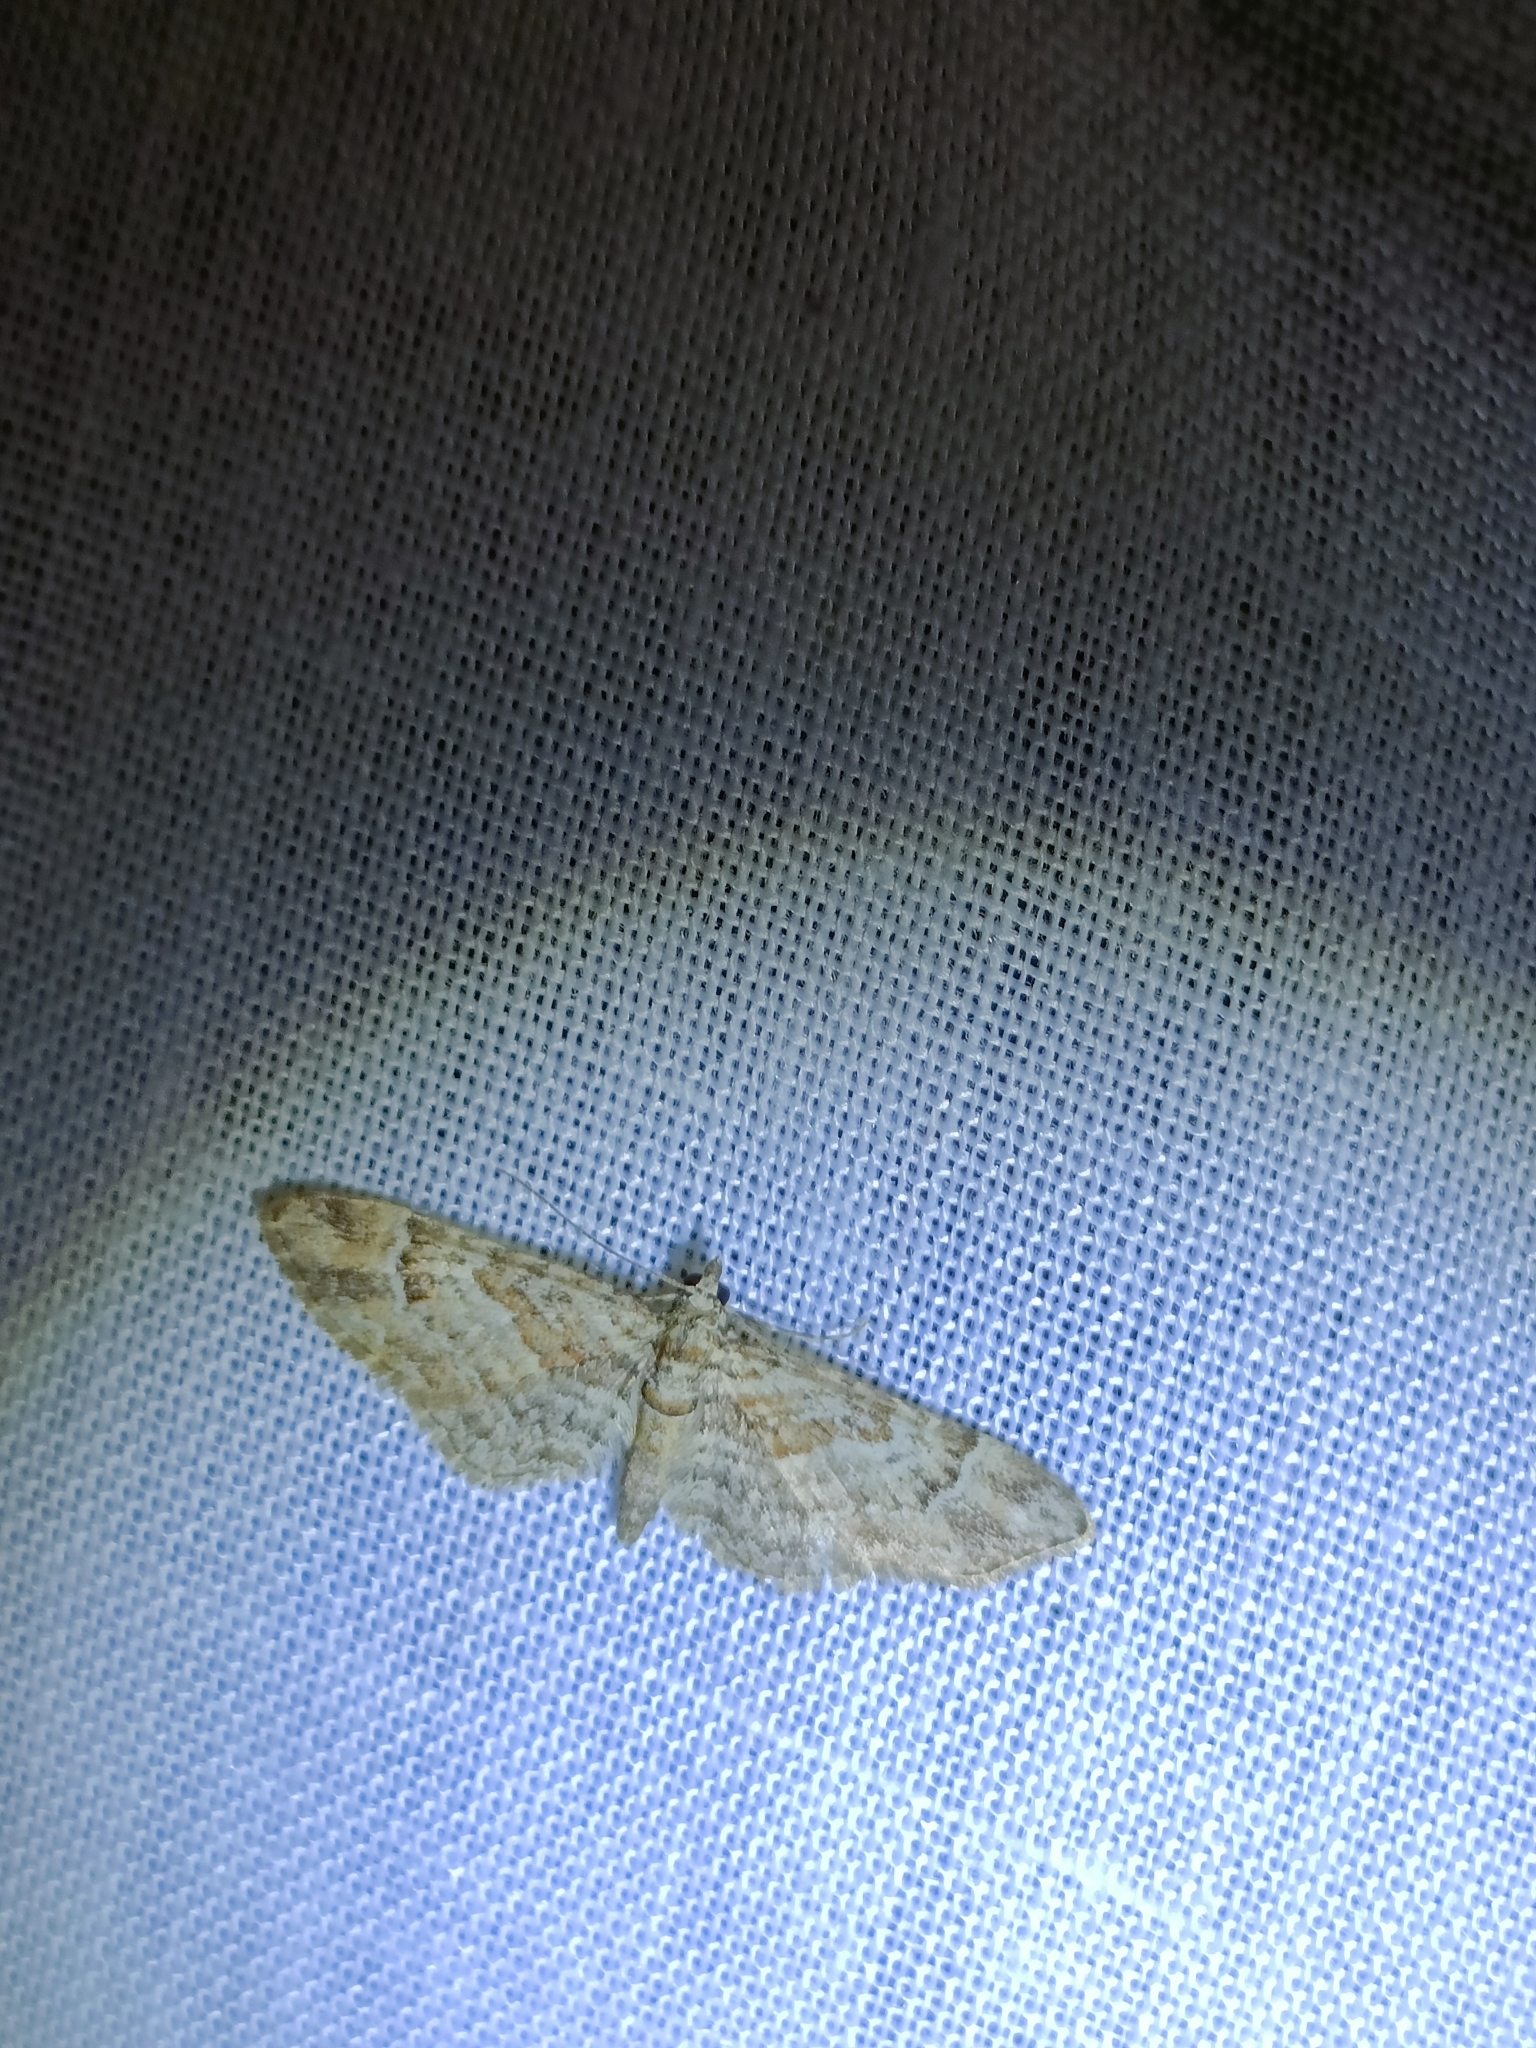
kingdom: Animalia
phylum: Arthropoda
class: Insecta
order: Lepidoptera
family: Geometridae
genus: Gymnoscelis
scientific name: Gymnoscelis rufifasciata
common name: Double-striped pug
